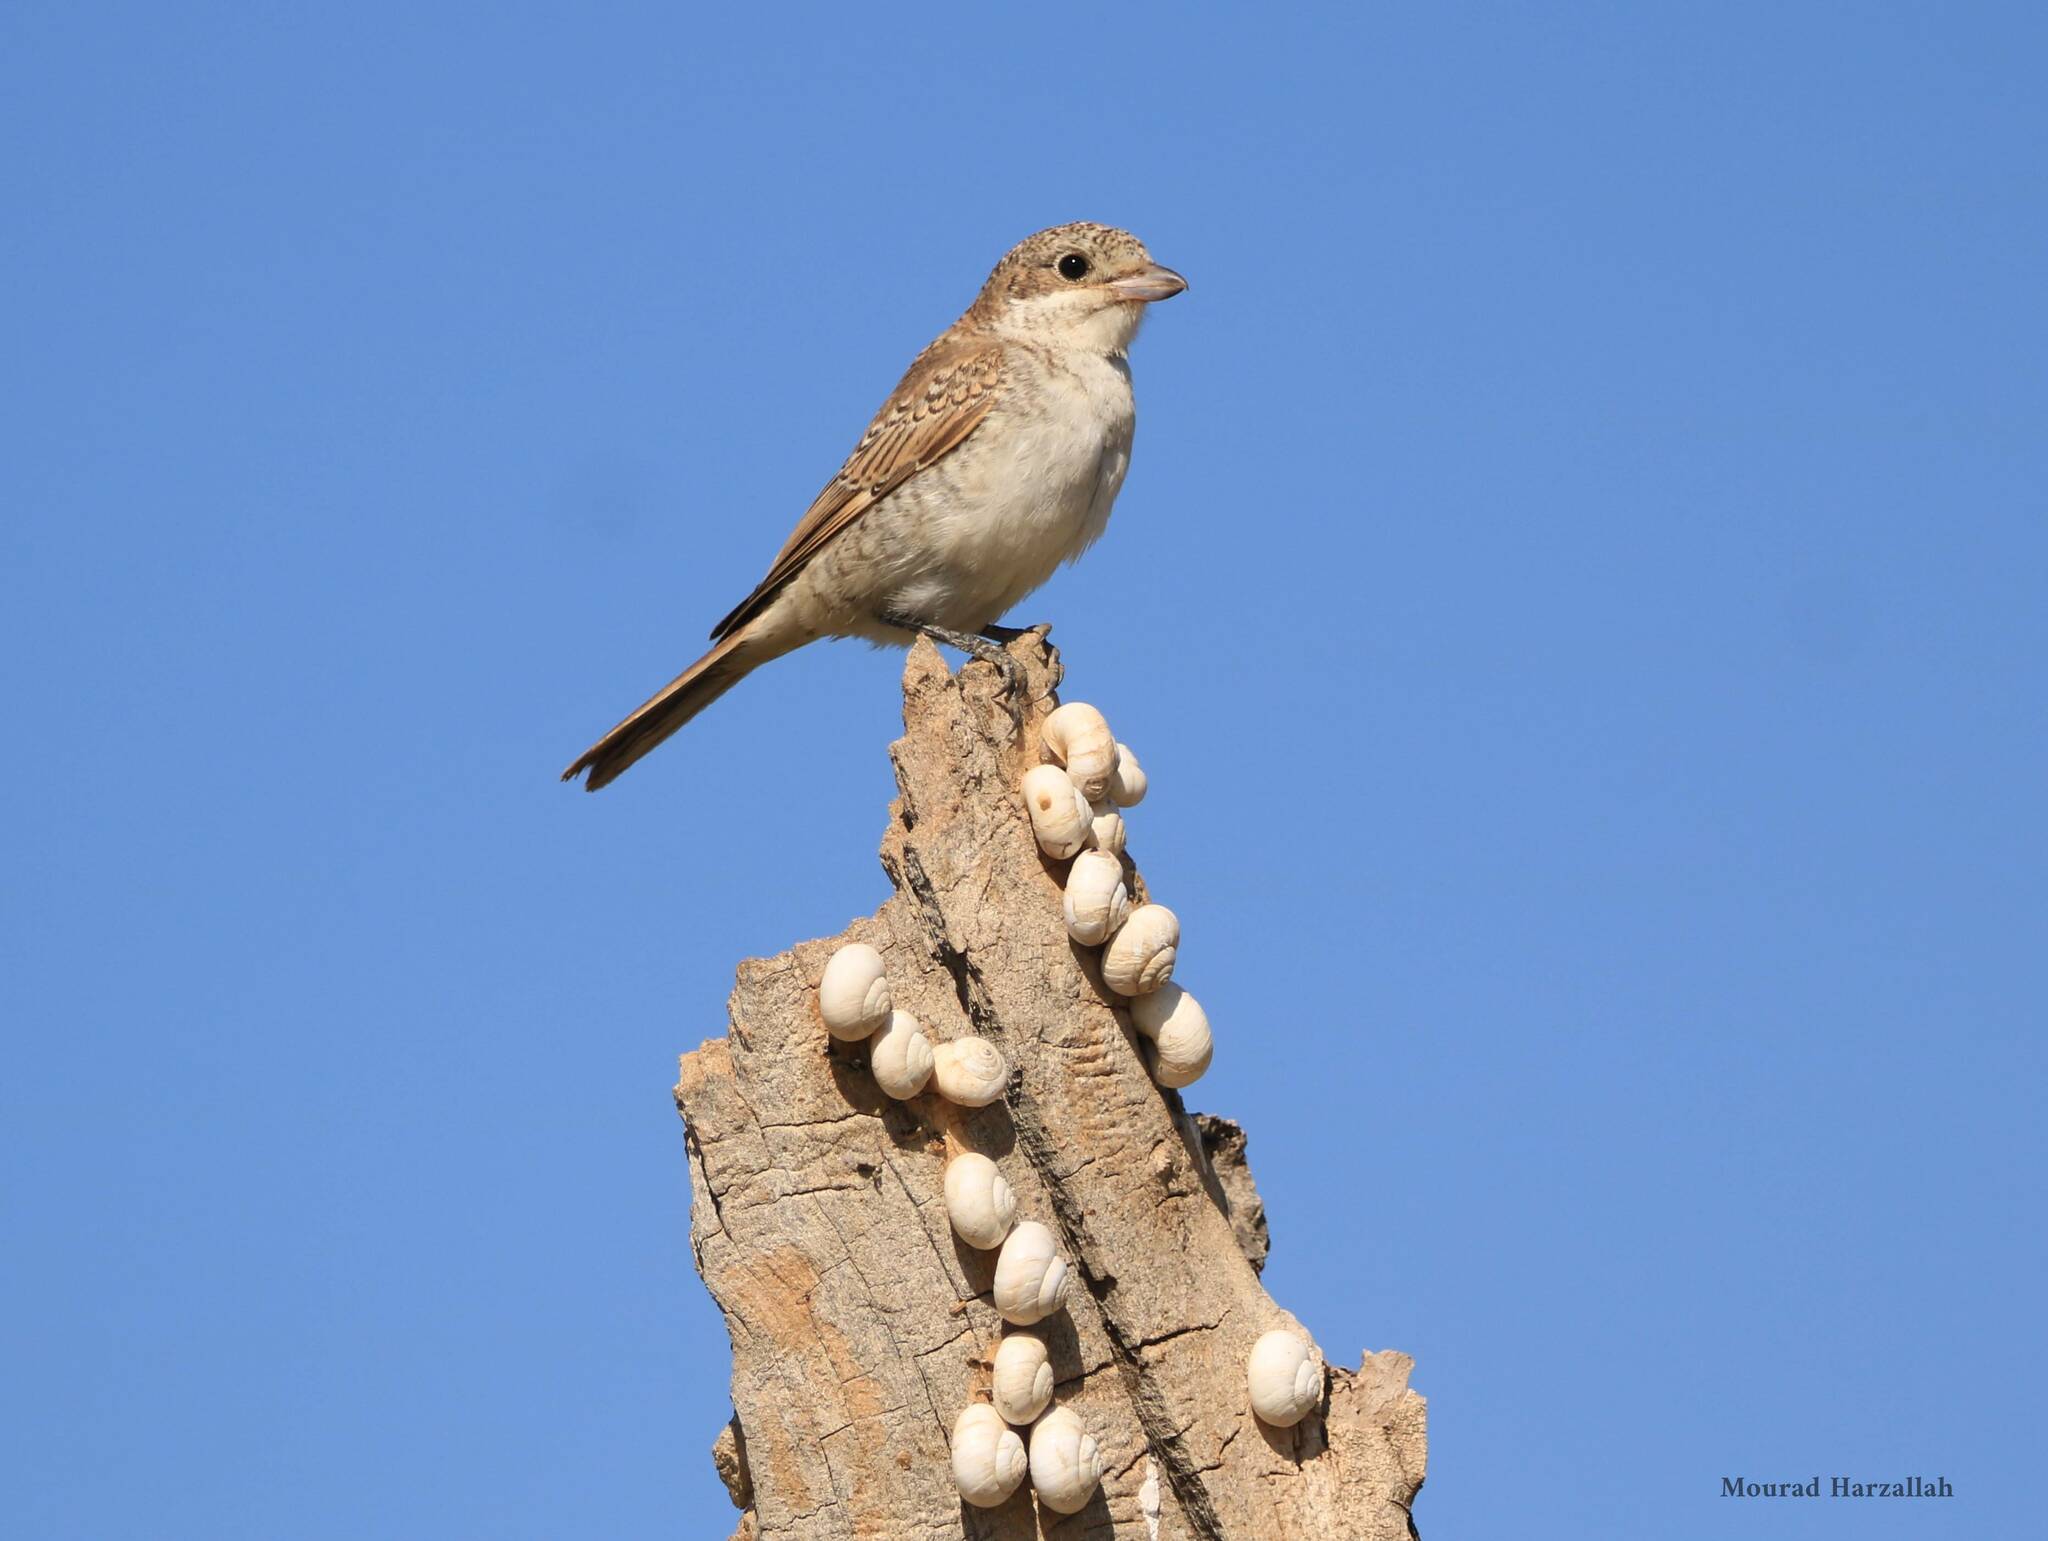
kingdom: Animalia
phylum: Chordata
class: Aves
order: Passeriformes
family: Laniidae
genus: Lanius
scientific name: Lanius senator
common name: Woodchat shrike
